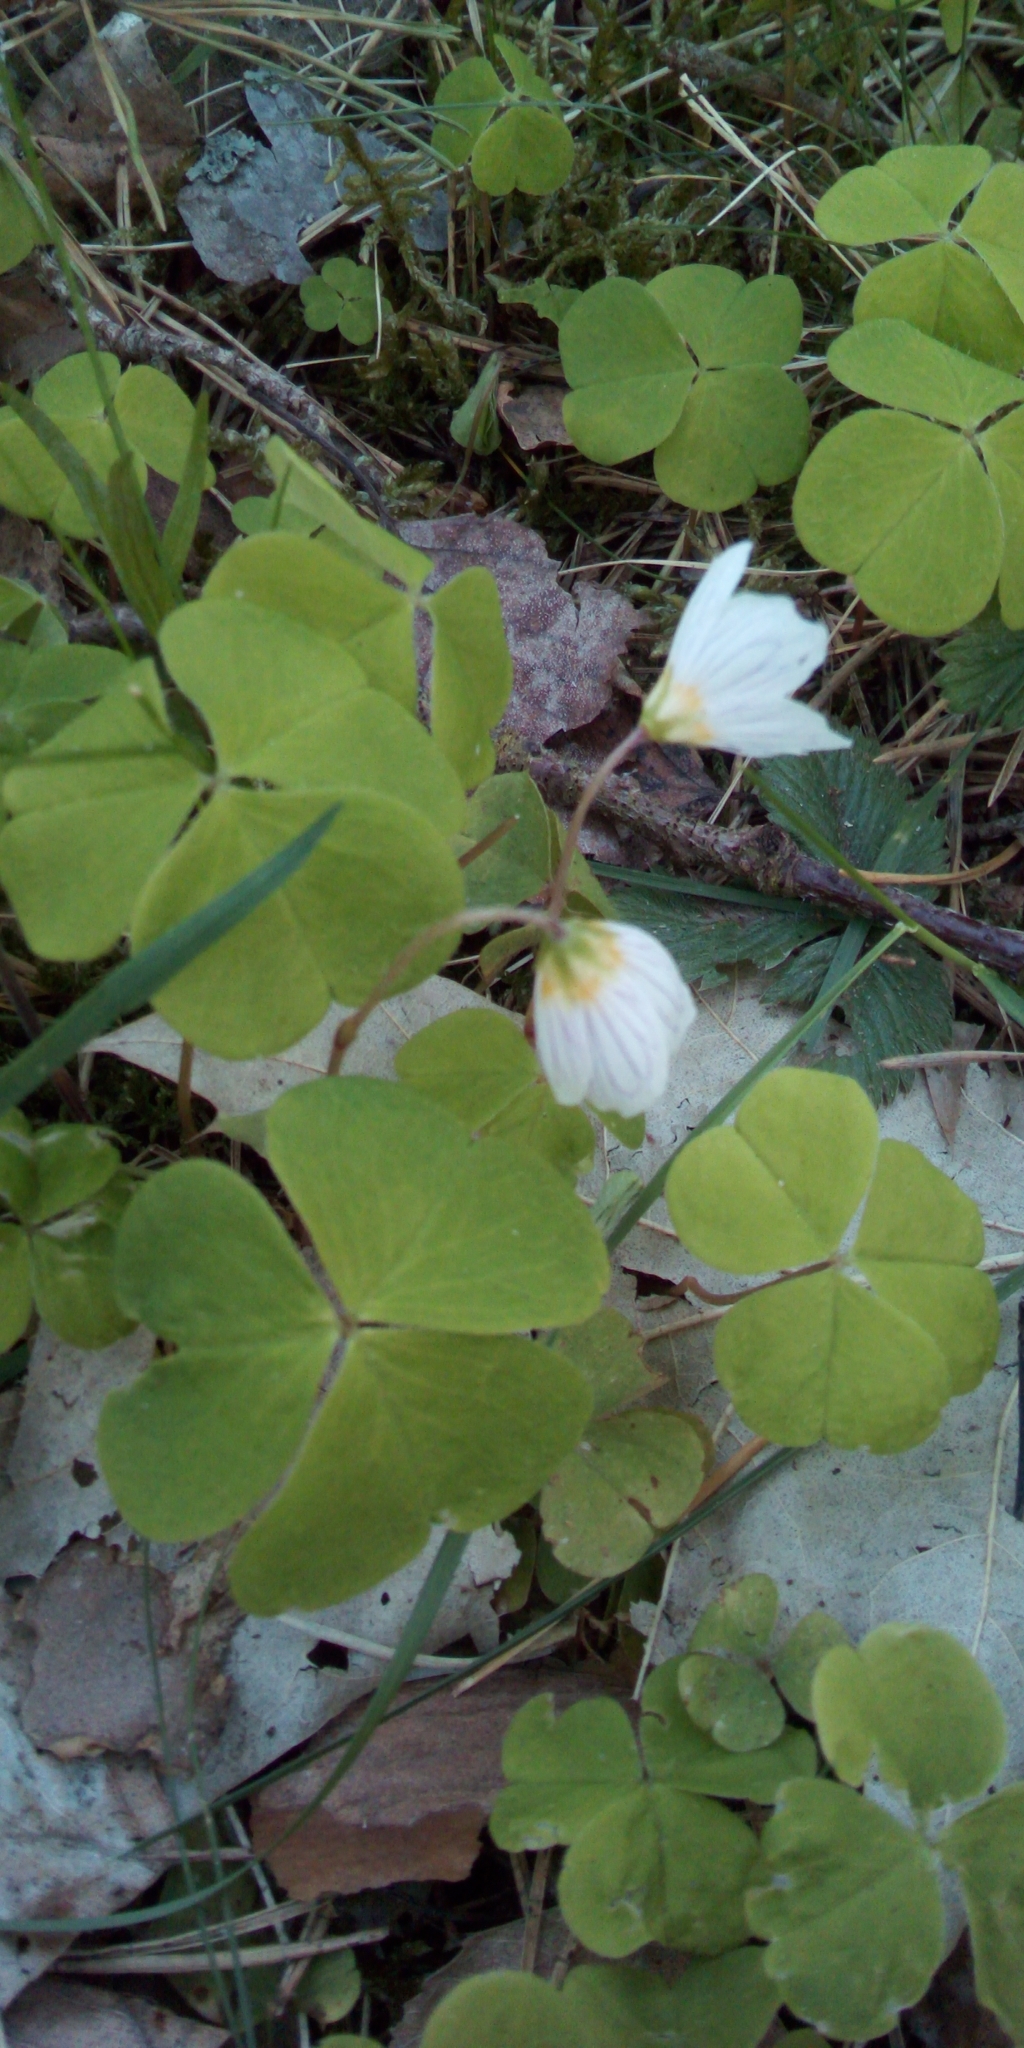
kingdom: Plantae
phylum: Tracheophyta
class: Magnoliopsida
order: Oxalidales
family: Oxalidaceae
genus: Oxalis
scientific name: Oxalis acetosella
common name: Wood-sorrel
